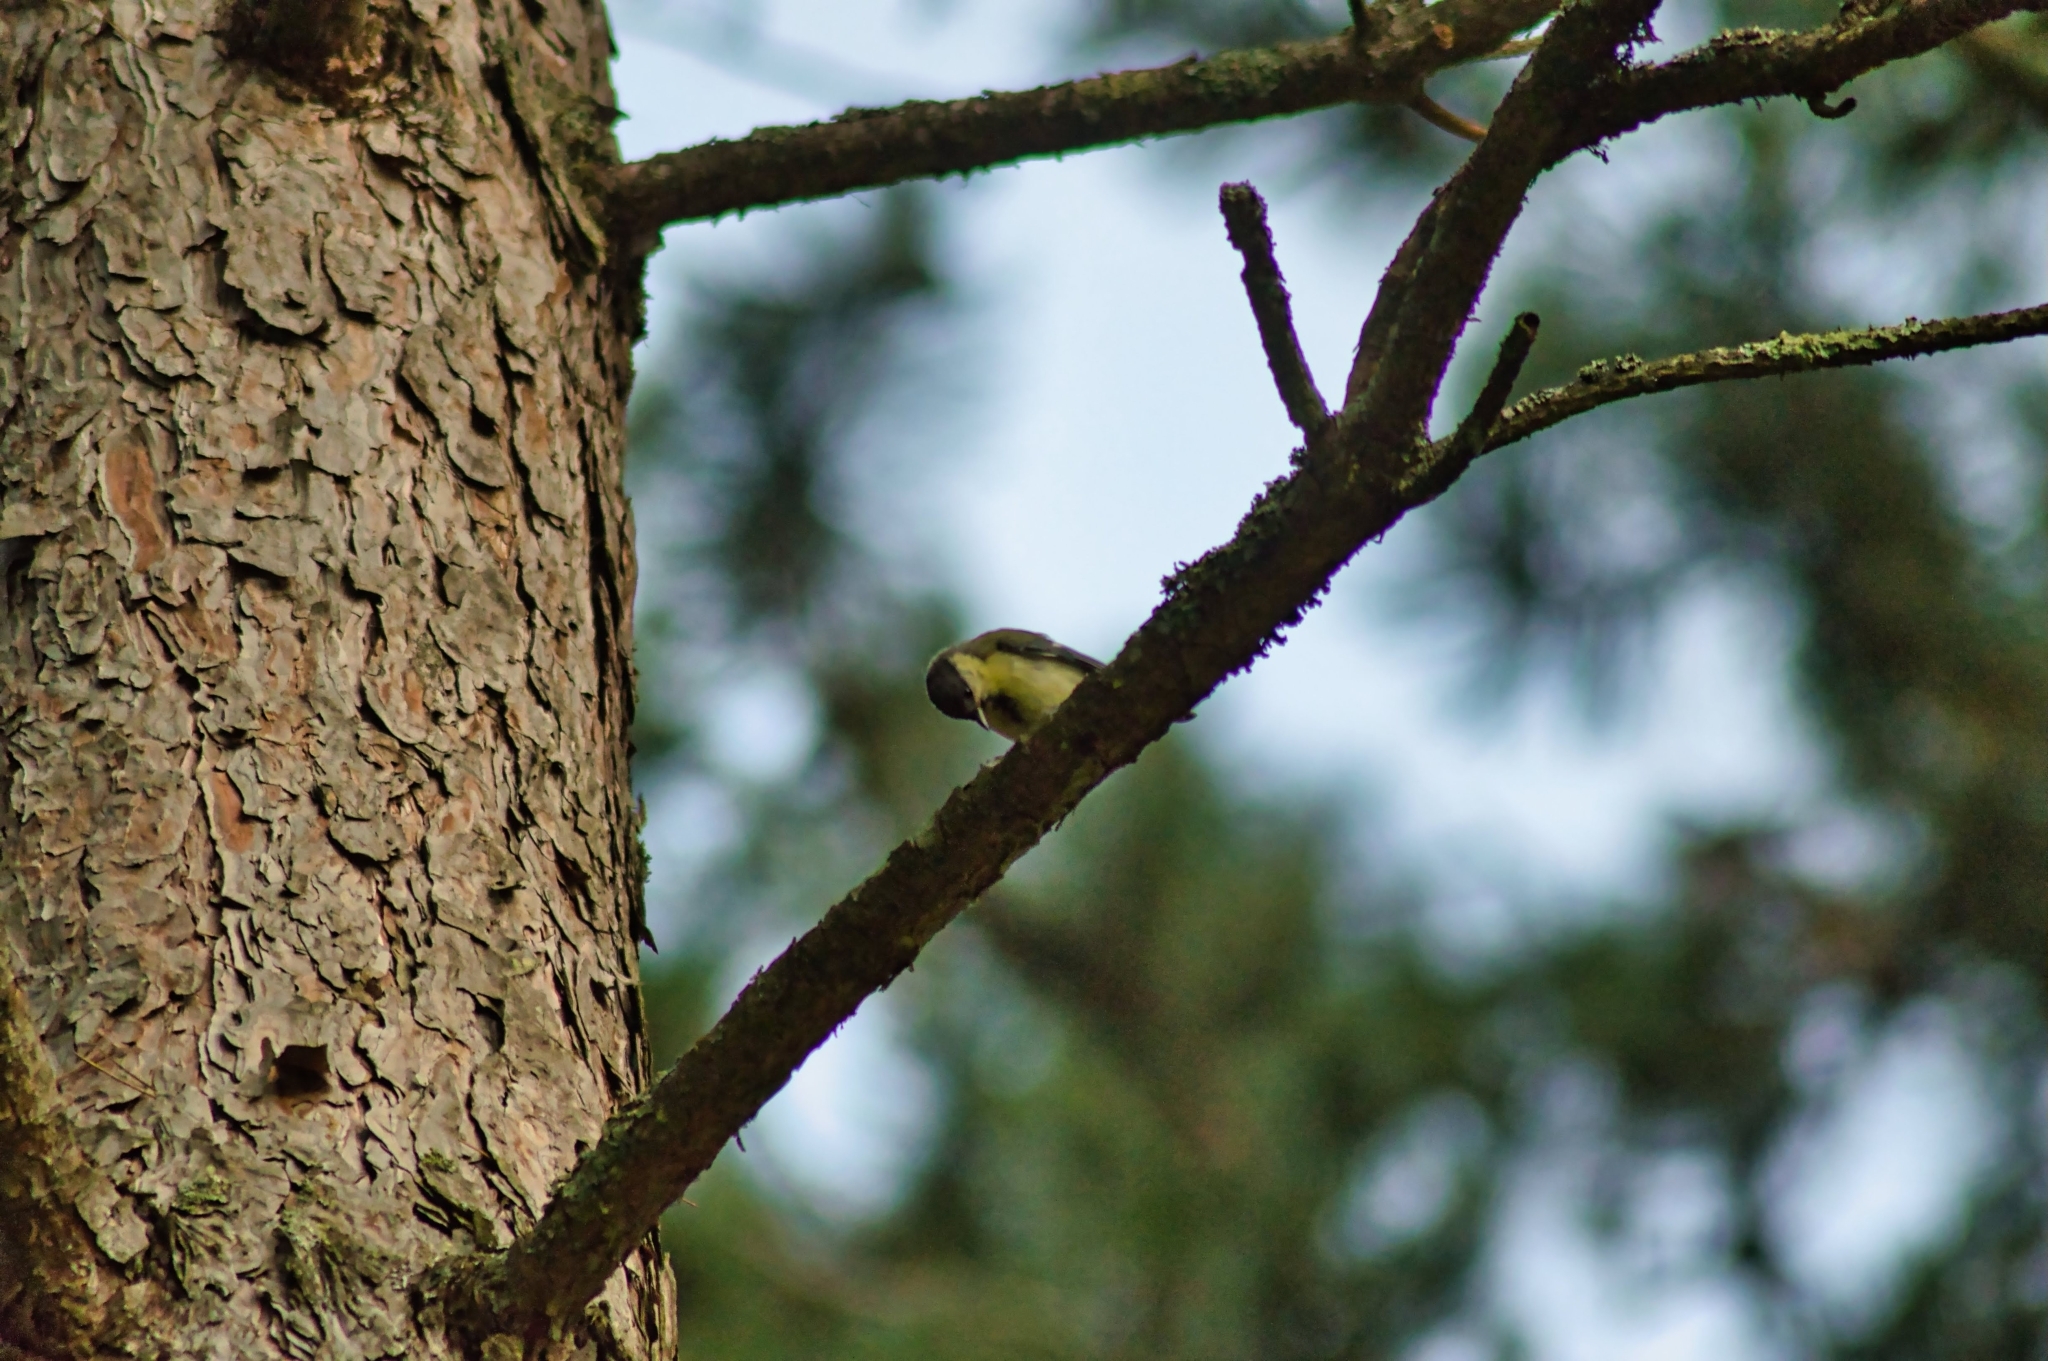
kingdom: Animalia
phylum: Chordata
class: Aves
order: Passeriformes
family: Paridae
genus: Parus
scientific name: Parus major
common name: Great tit
